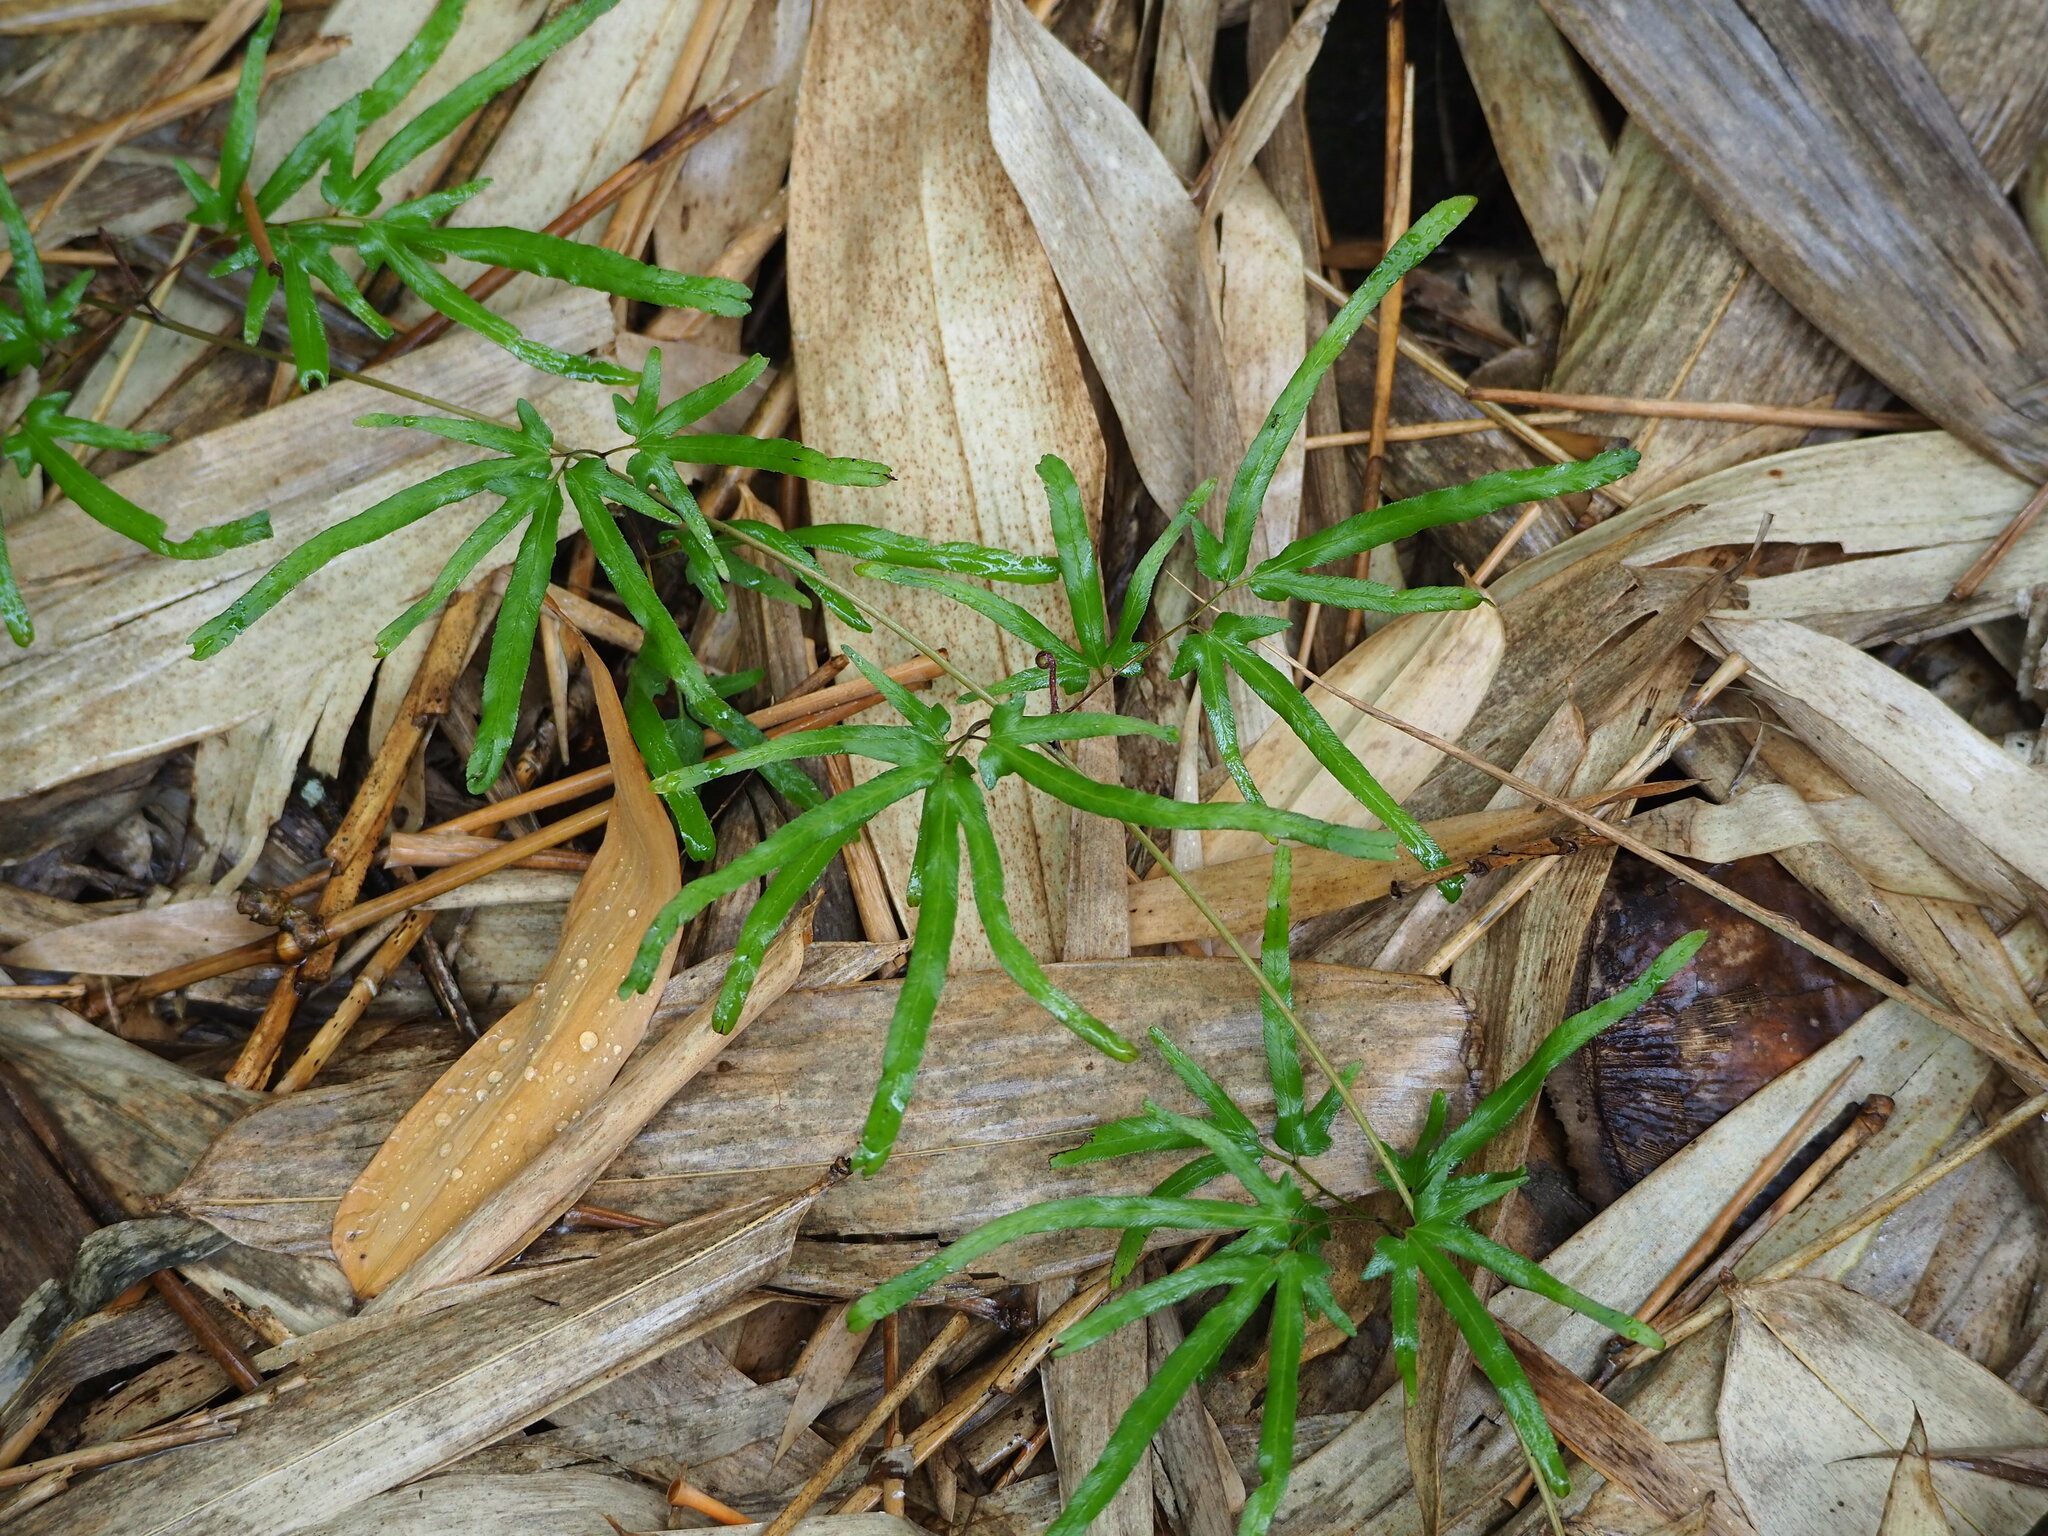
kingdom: Plantae
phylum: Tracheophyta
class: Polypodiopsida
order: Schizaeales
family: Lygodiaceae
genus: Lygodium
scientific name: Lygodium japonicum
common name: Japanese climbing fern
